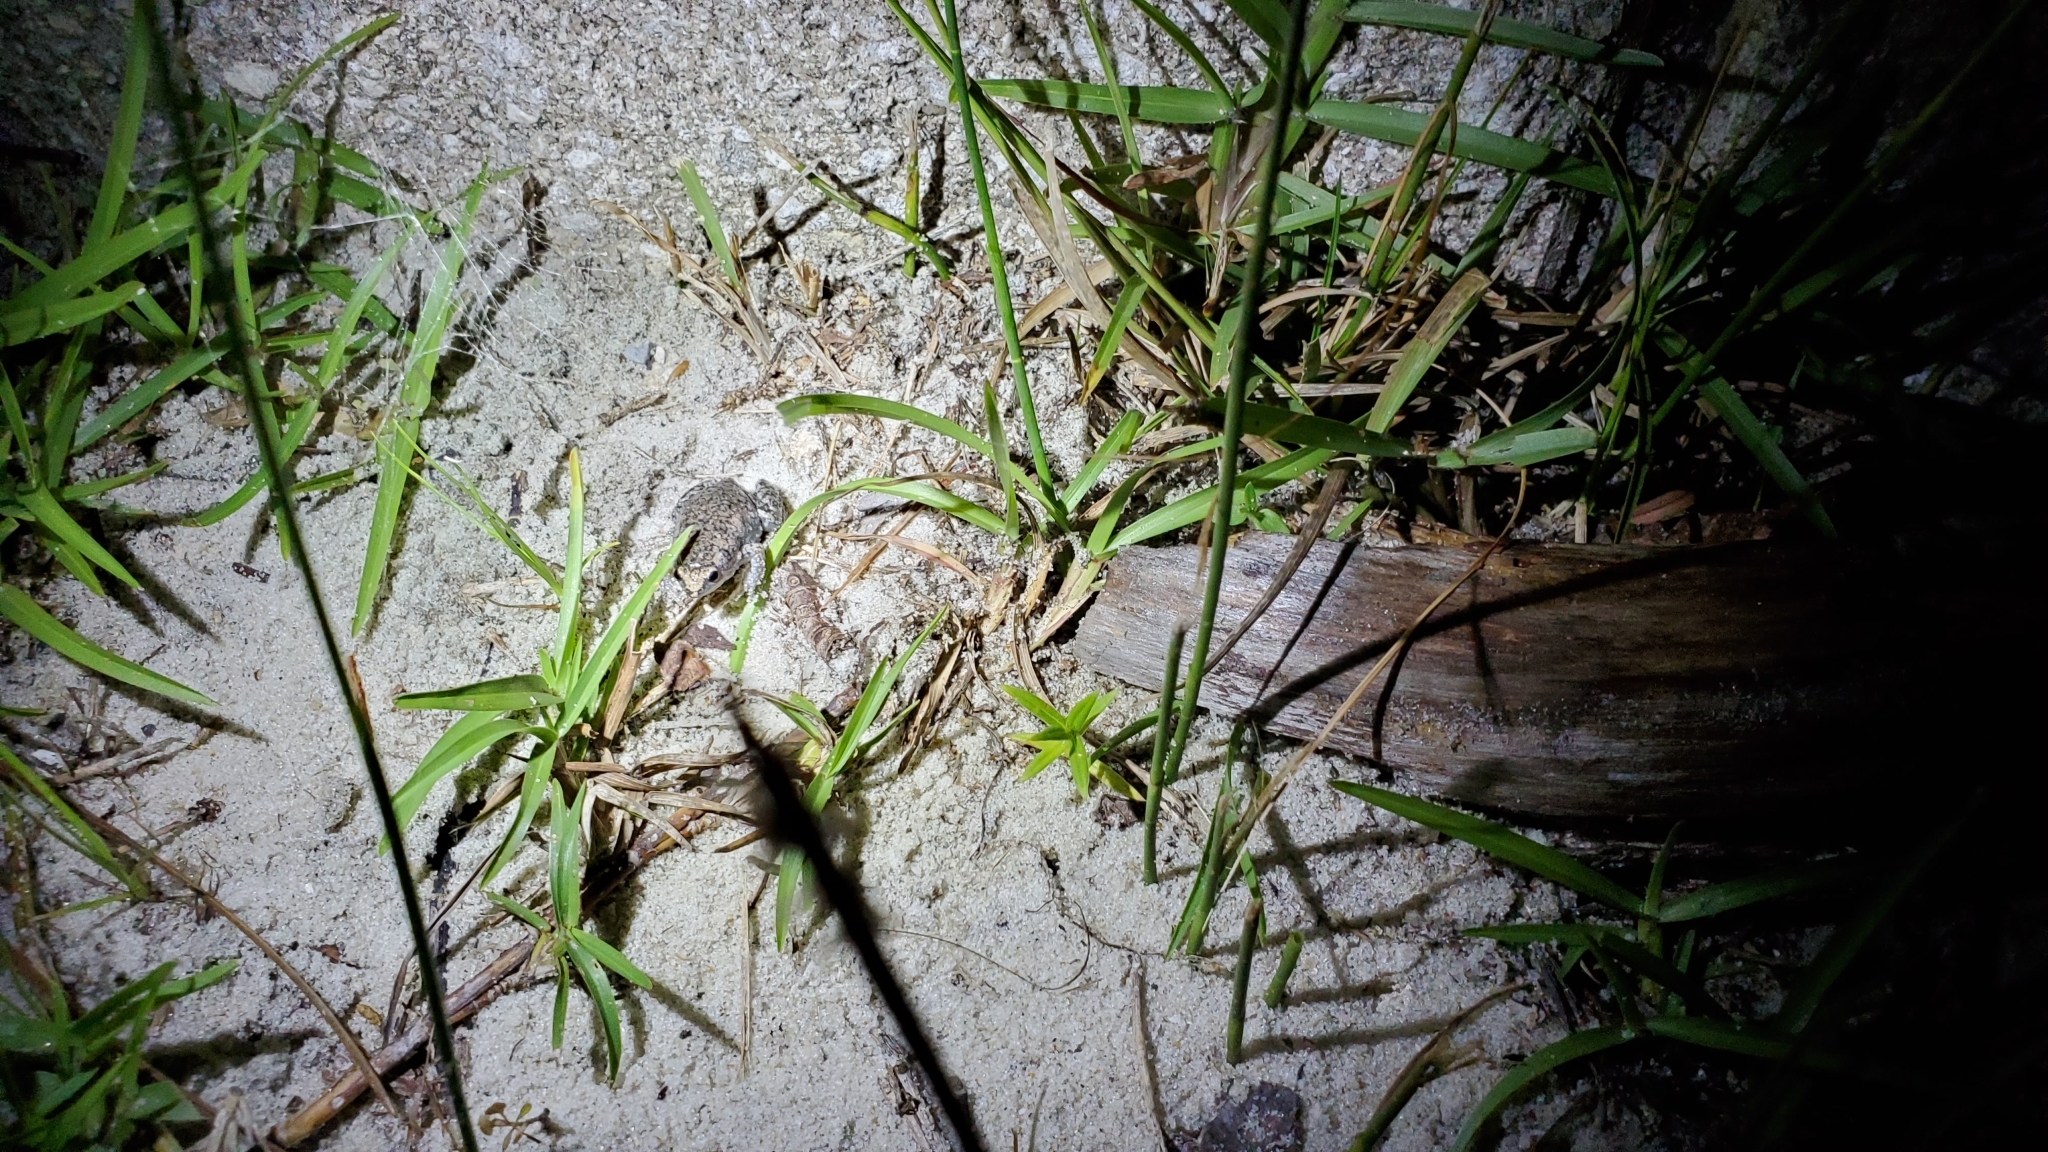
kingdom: Animalia
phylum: Chordata
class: Amphibia
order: Anura
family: Microhylidae
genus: Gastrophryne
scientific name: Gastrophryne carolinensis
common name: Eastern narrowmouth toad
